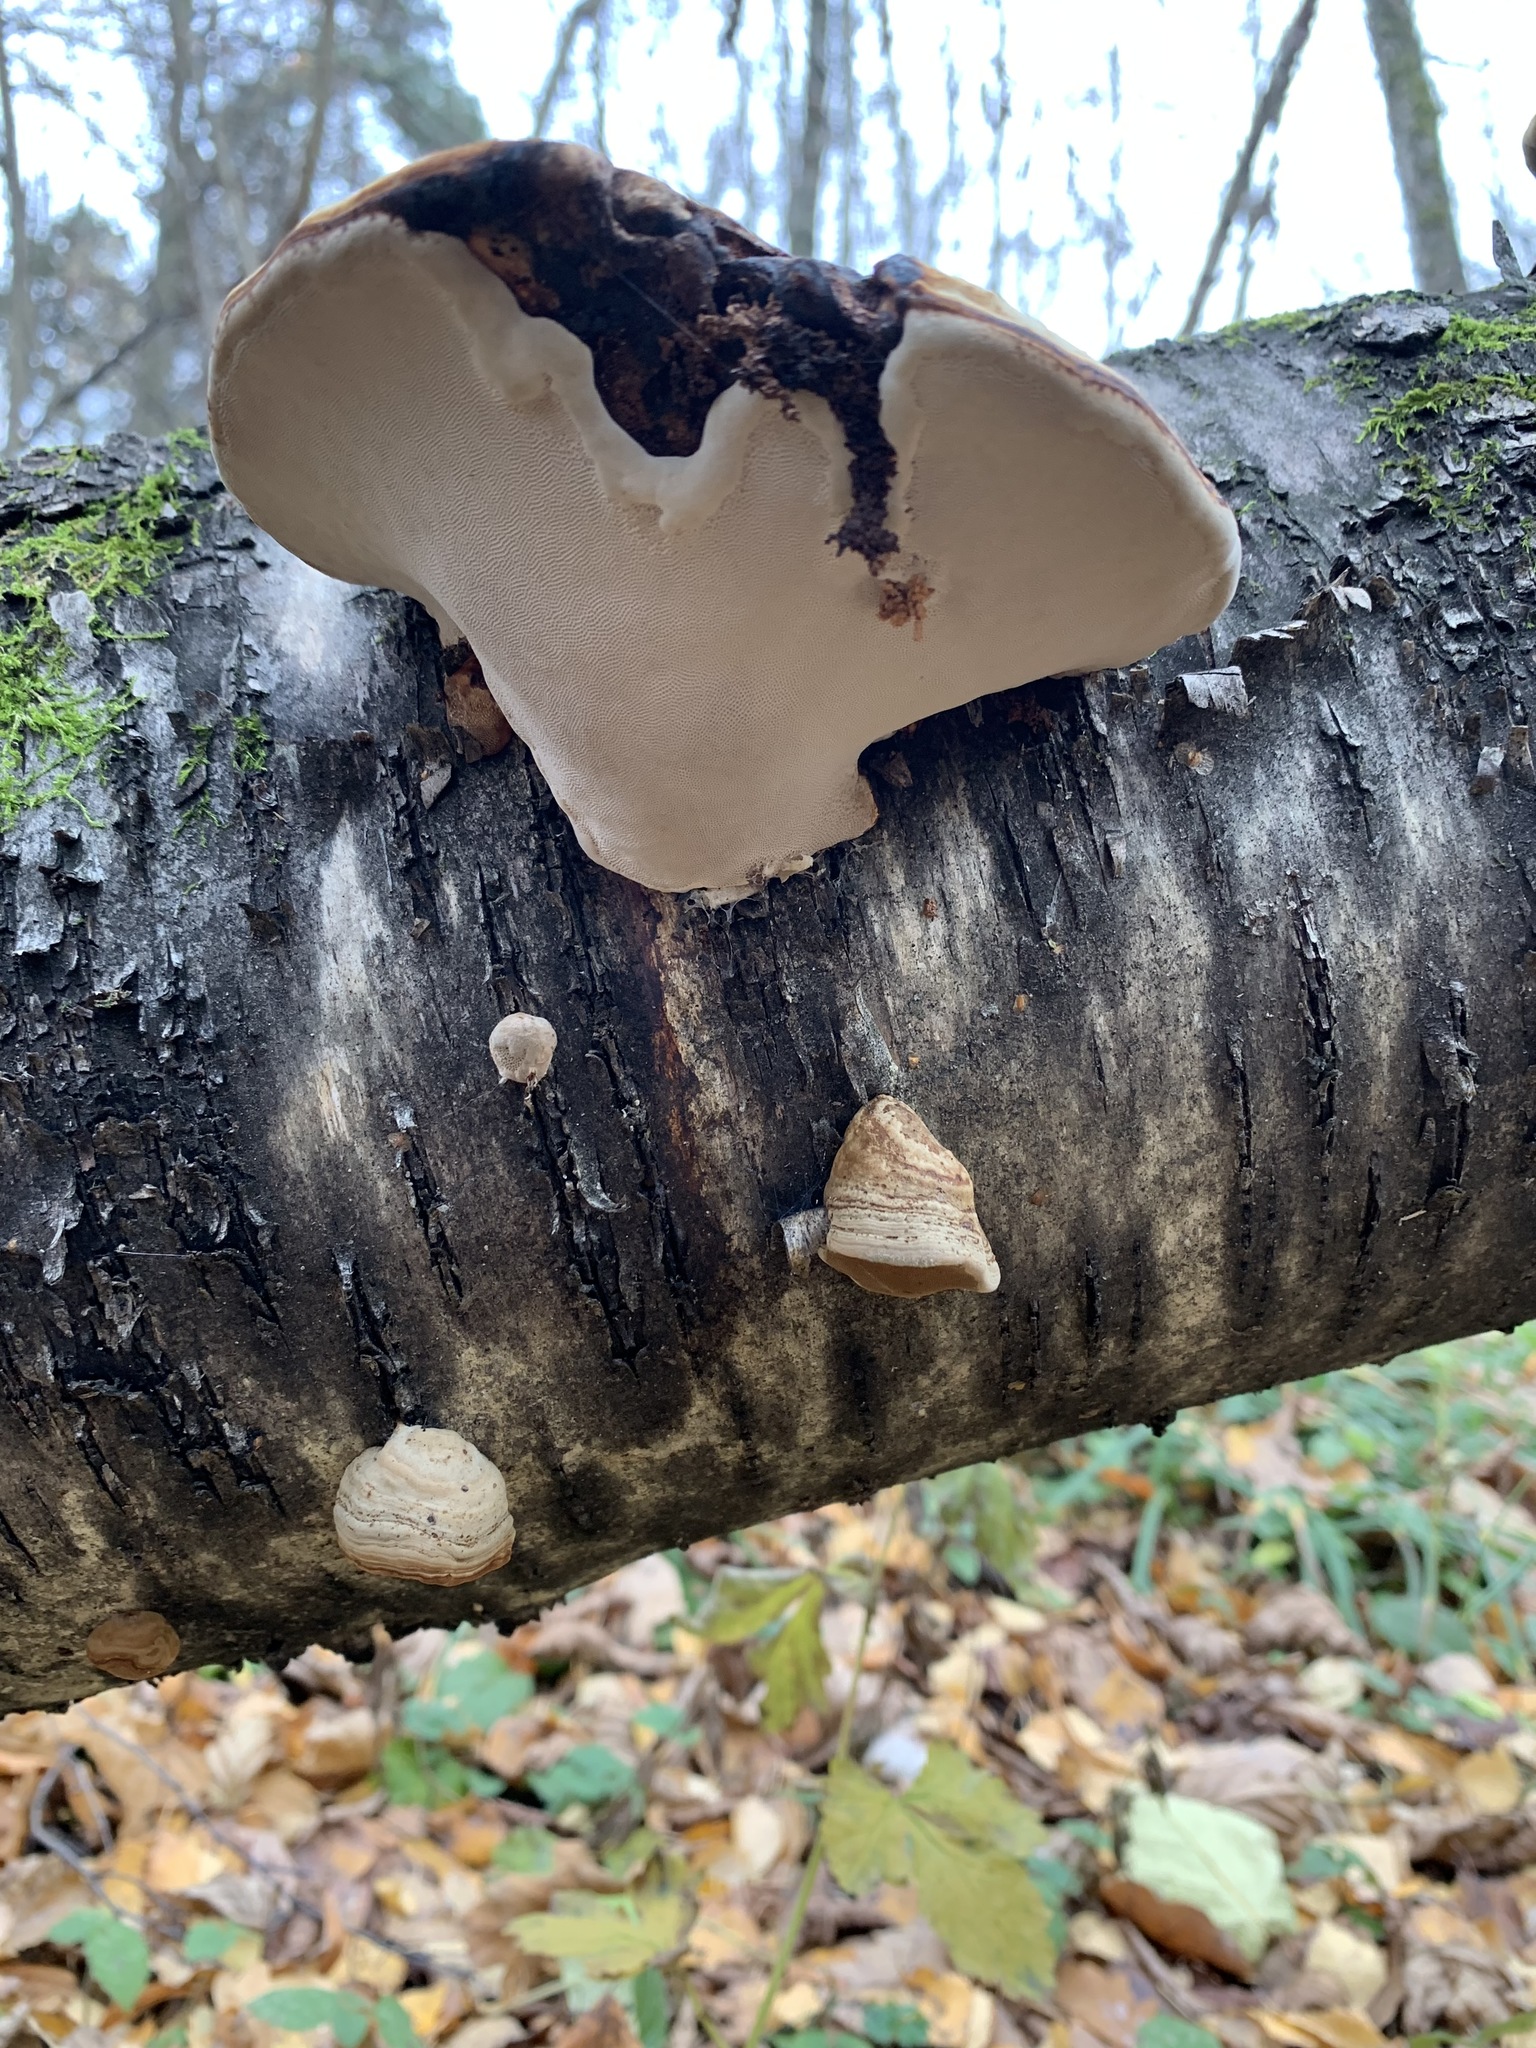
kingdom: Fungi
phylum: Basidiomycota
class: Agaricomycetes
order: Polyporales
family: Polyporaceae
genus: Fomes
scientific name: Fomes fomentarius
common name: Hoof fungus
